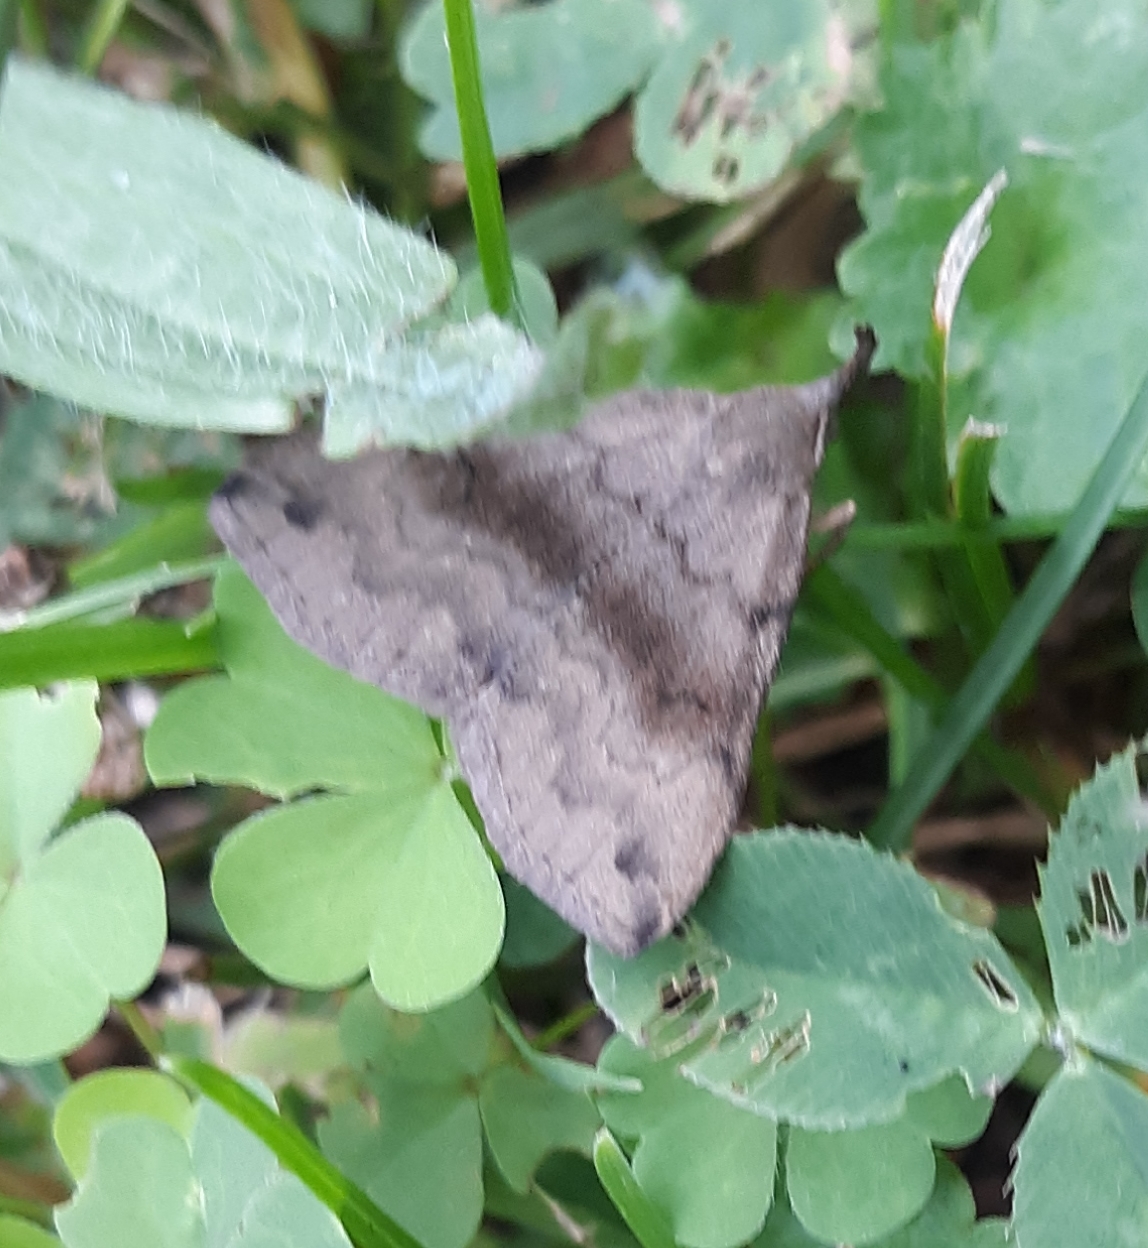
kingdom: Animalia
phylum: Arthropoda
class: Insecta
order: Lepidoptera
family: Erebidae
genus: Phalaenostola
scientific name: Phalaenostola eumelusalis
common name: Dark phalaenostola moth
